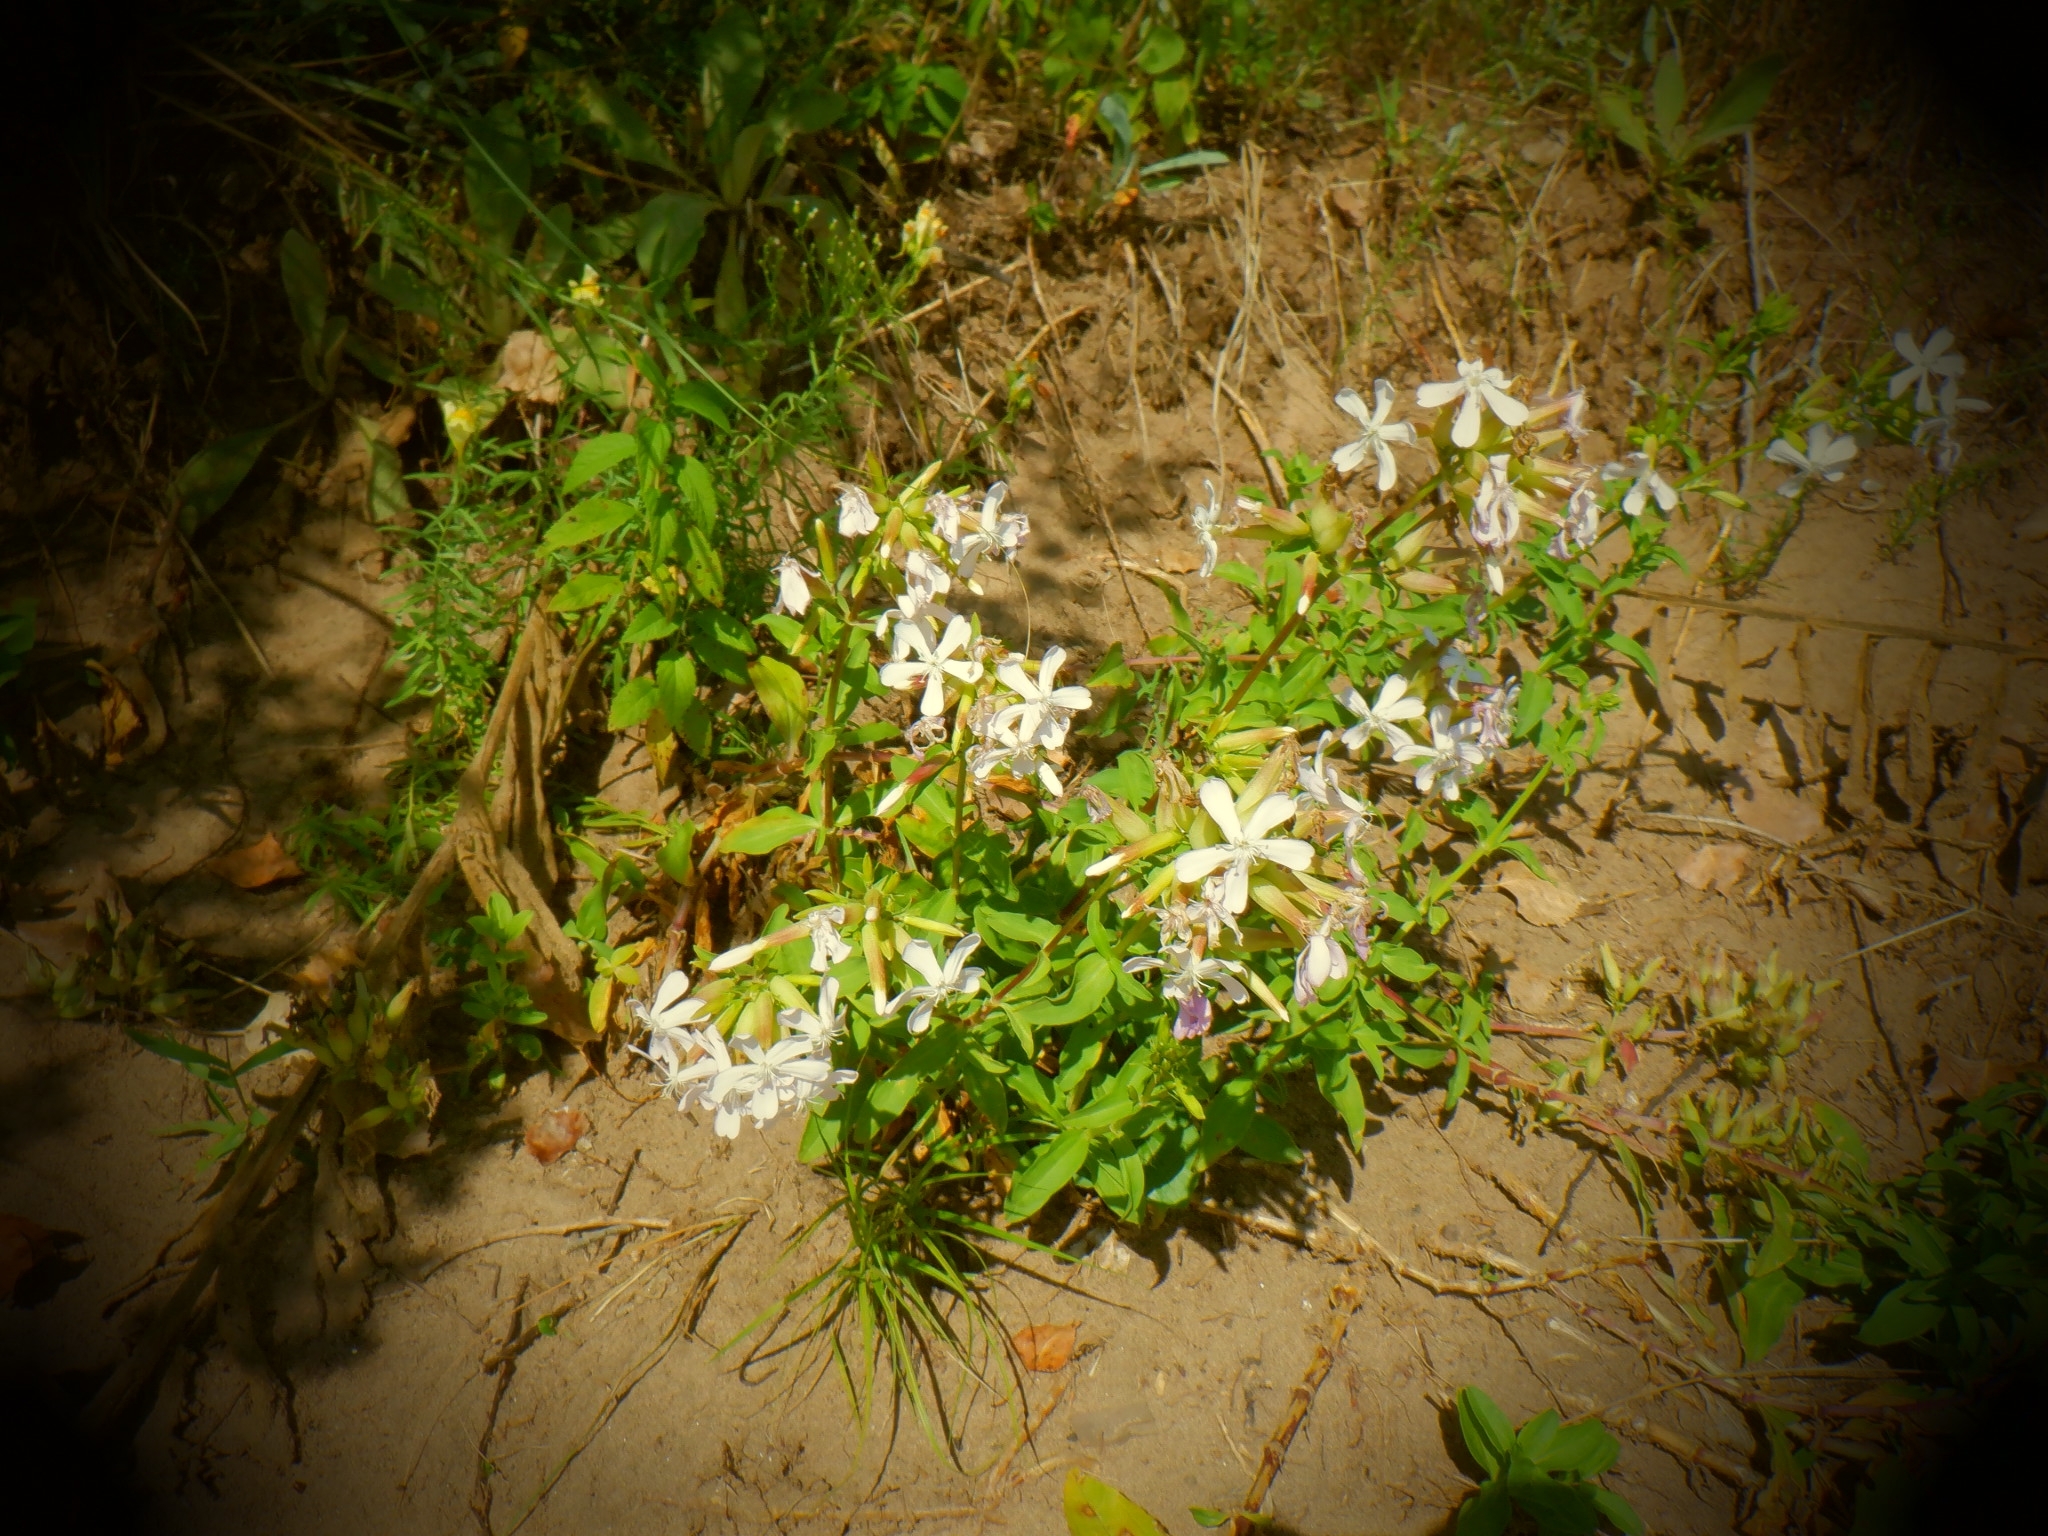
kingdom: Plantae
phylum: Tracheophyta
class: Magnoliopsida
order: Caryophyllales
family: Caryophyllaceae
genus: Saponaria
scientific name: Saponaria officinalis
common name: Soapwort
